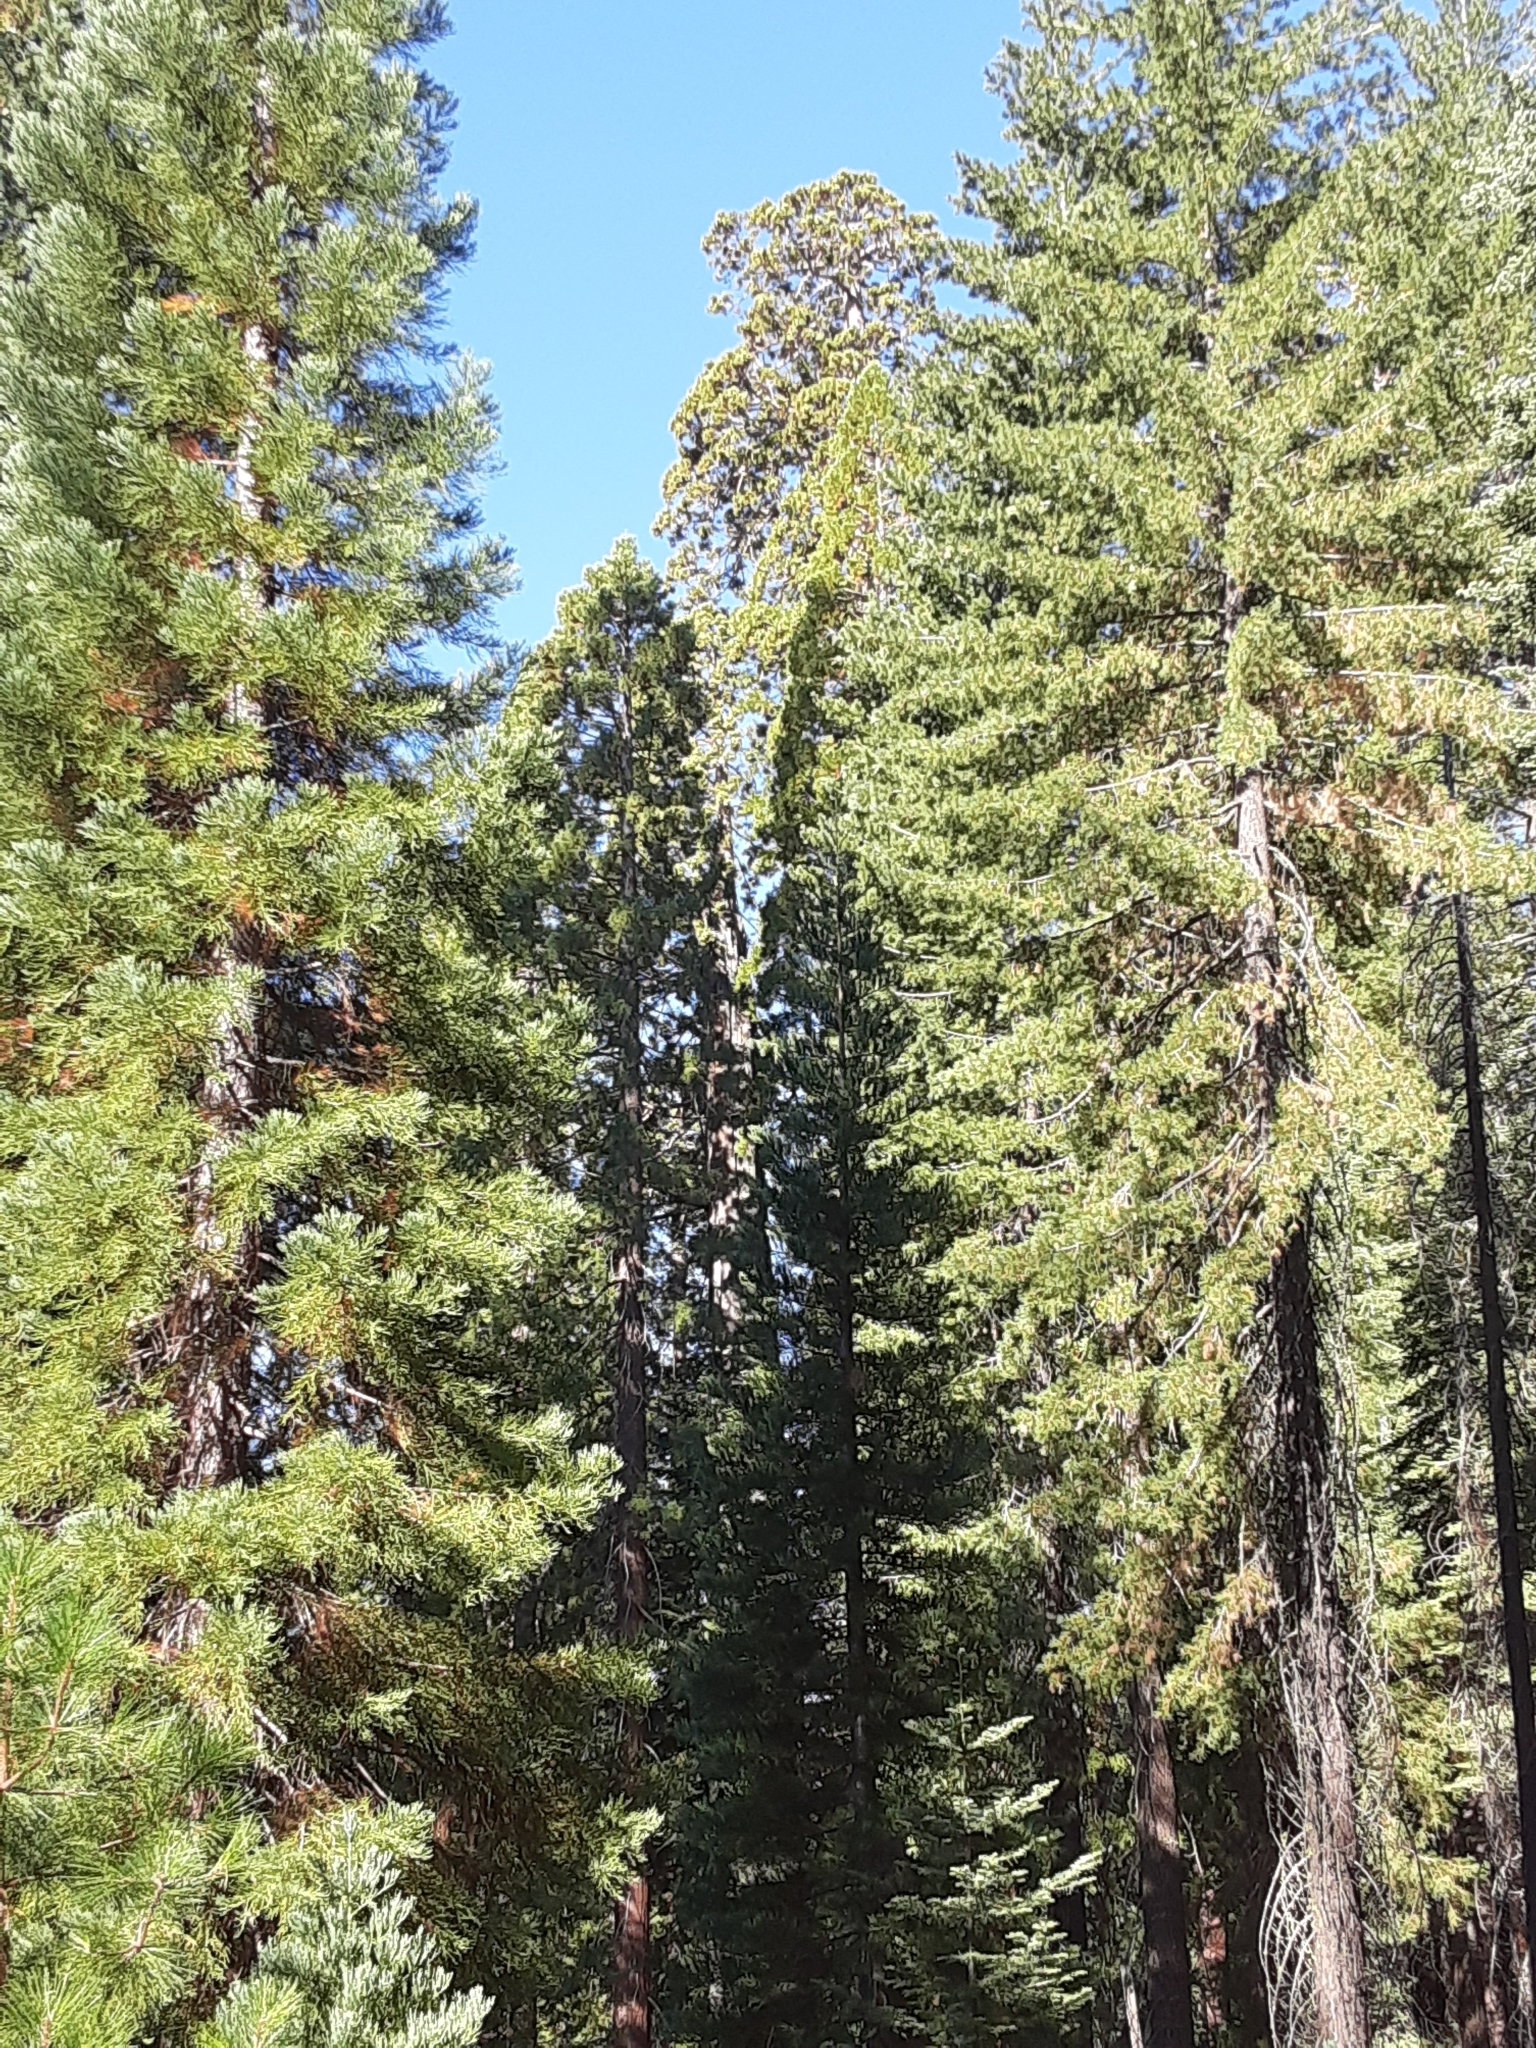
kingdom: Plantae
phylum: Tracheophyta
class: Pinopsida
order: Pinales
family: Cupressaceae
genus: Sequoiadendron
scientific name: Sequoiadendron giganteum
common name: Wellingtonia
